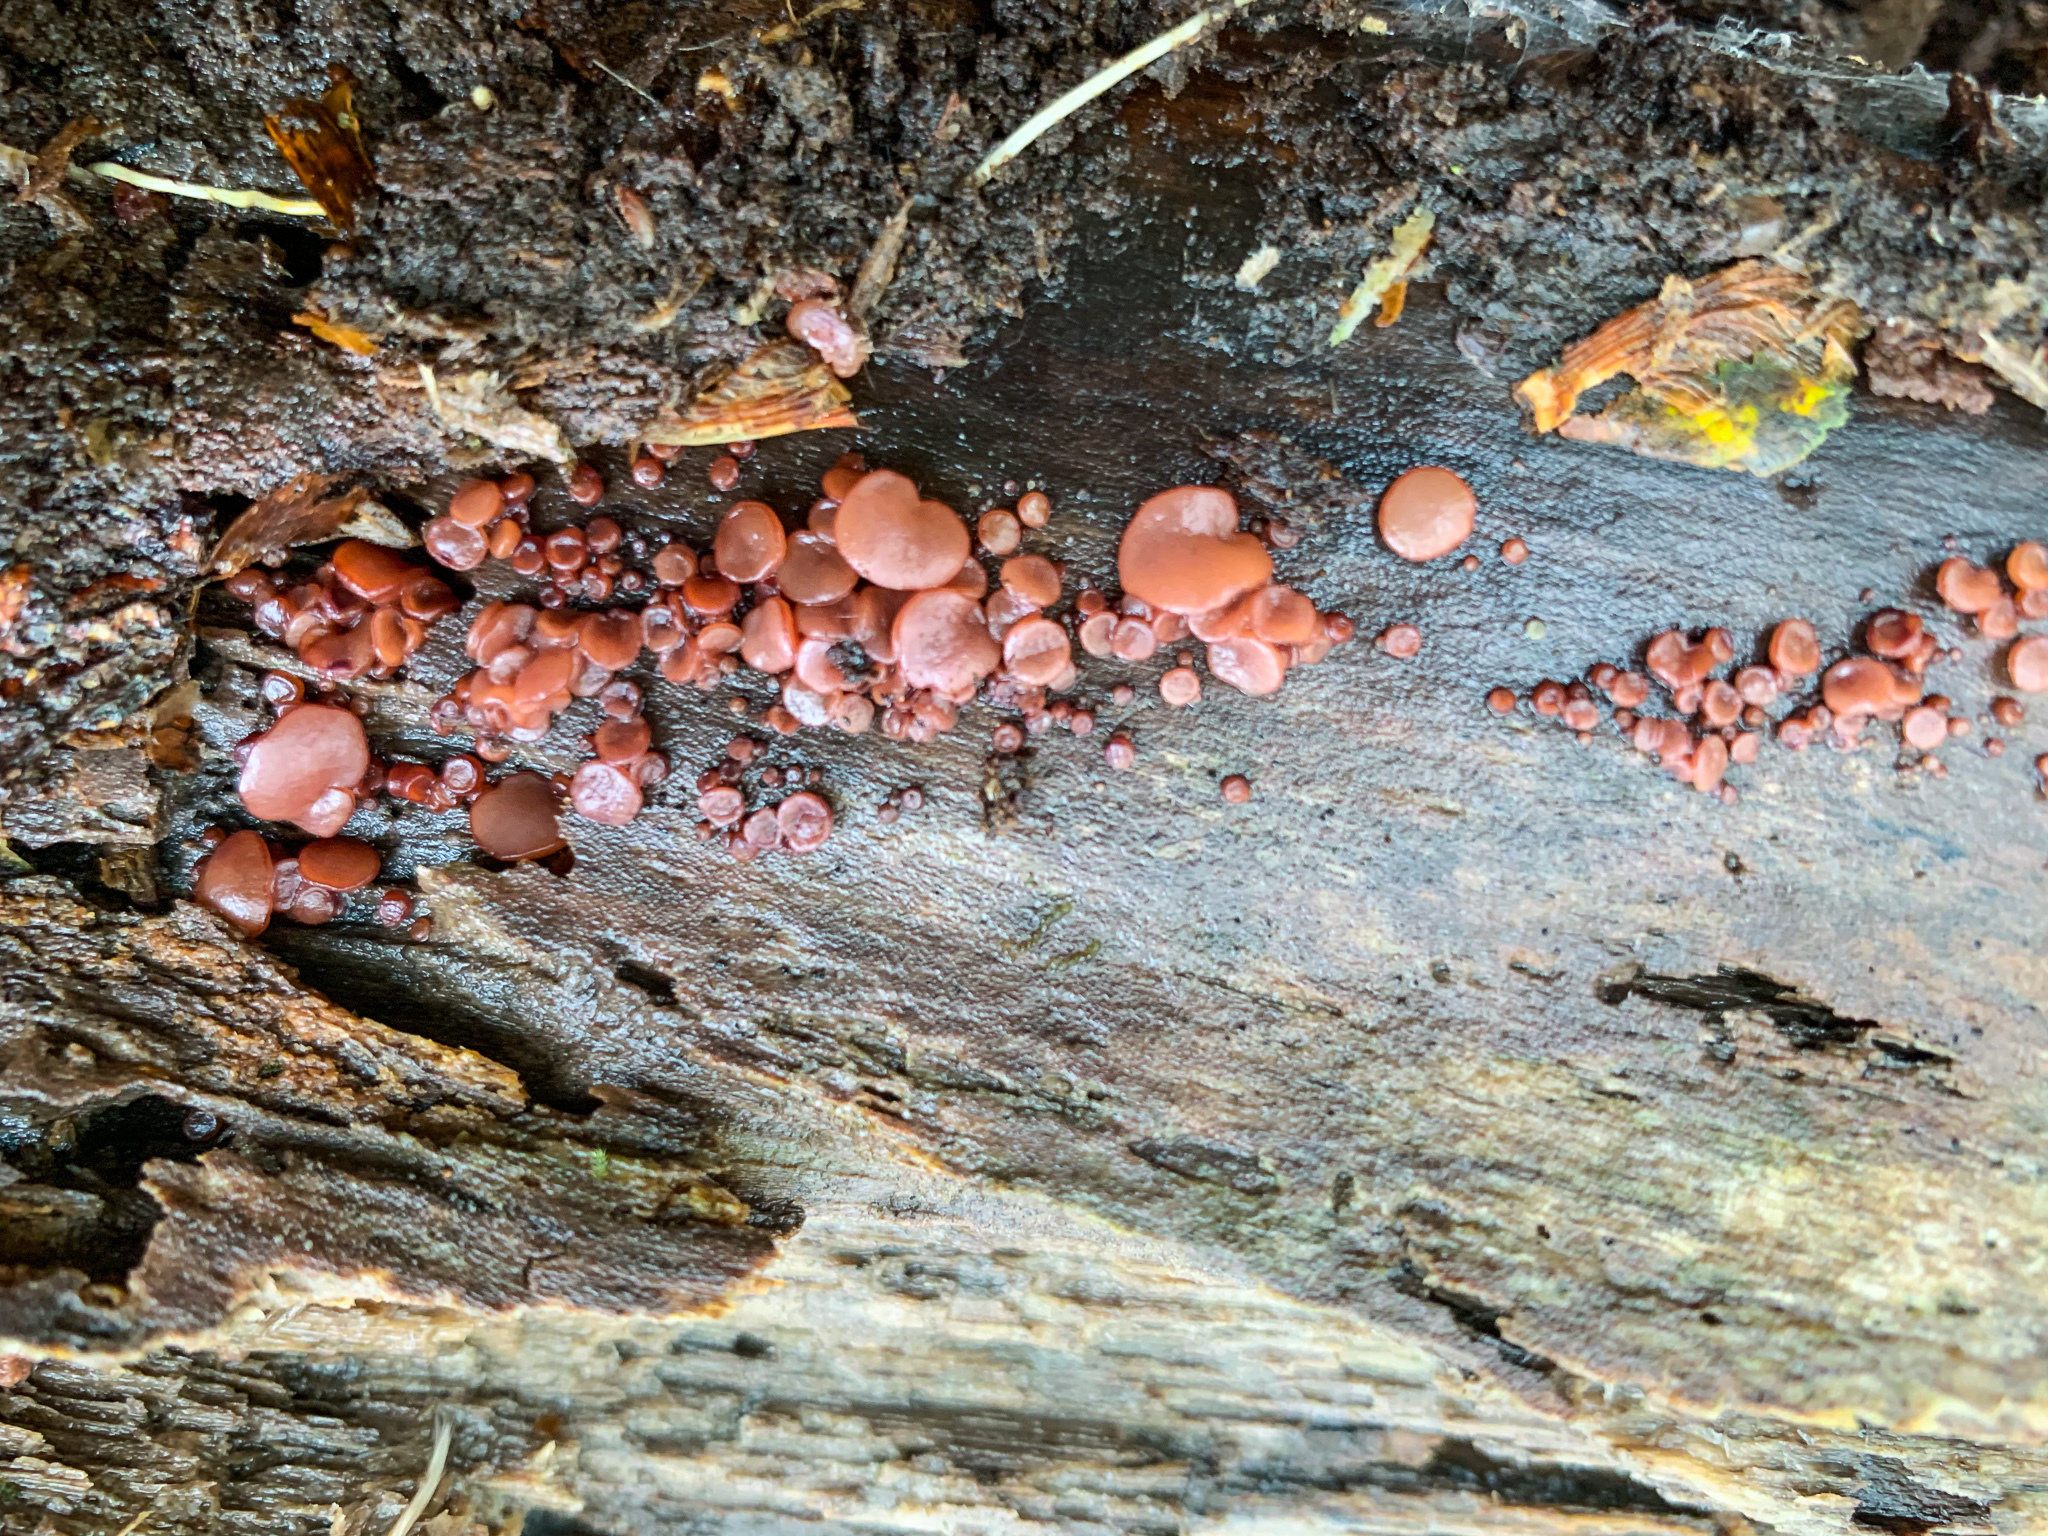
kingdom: Fungi
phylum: Ascomycota
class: Leotiomycetes
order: Helotiales
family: Gelatinodiscaceae
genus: Ascocoryne
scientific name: Ascocoryne sarcoides
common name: Purple jellydisc
